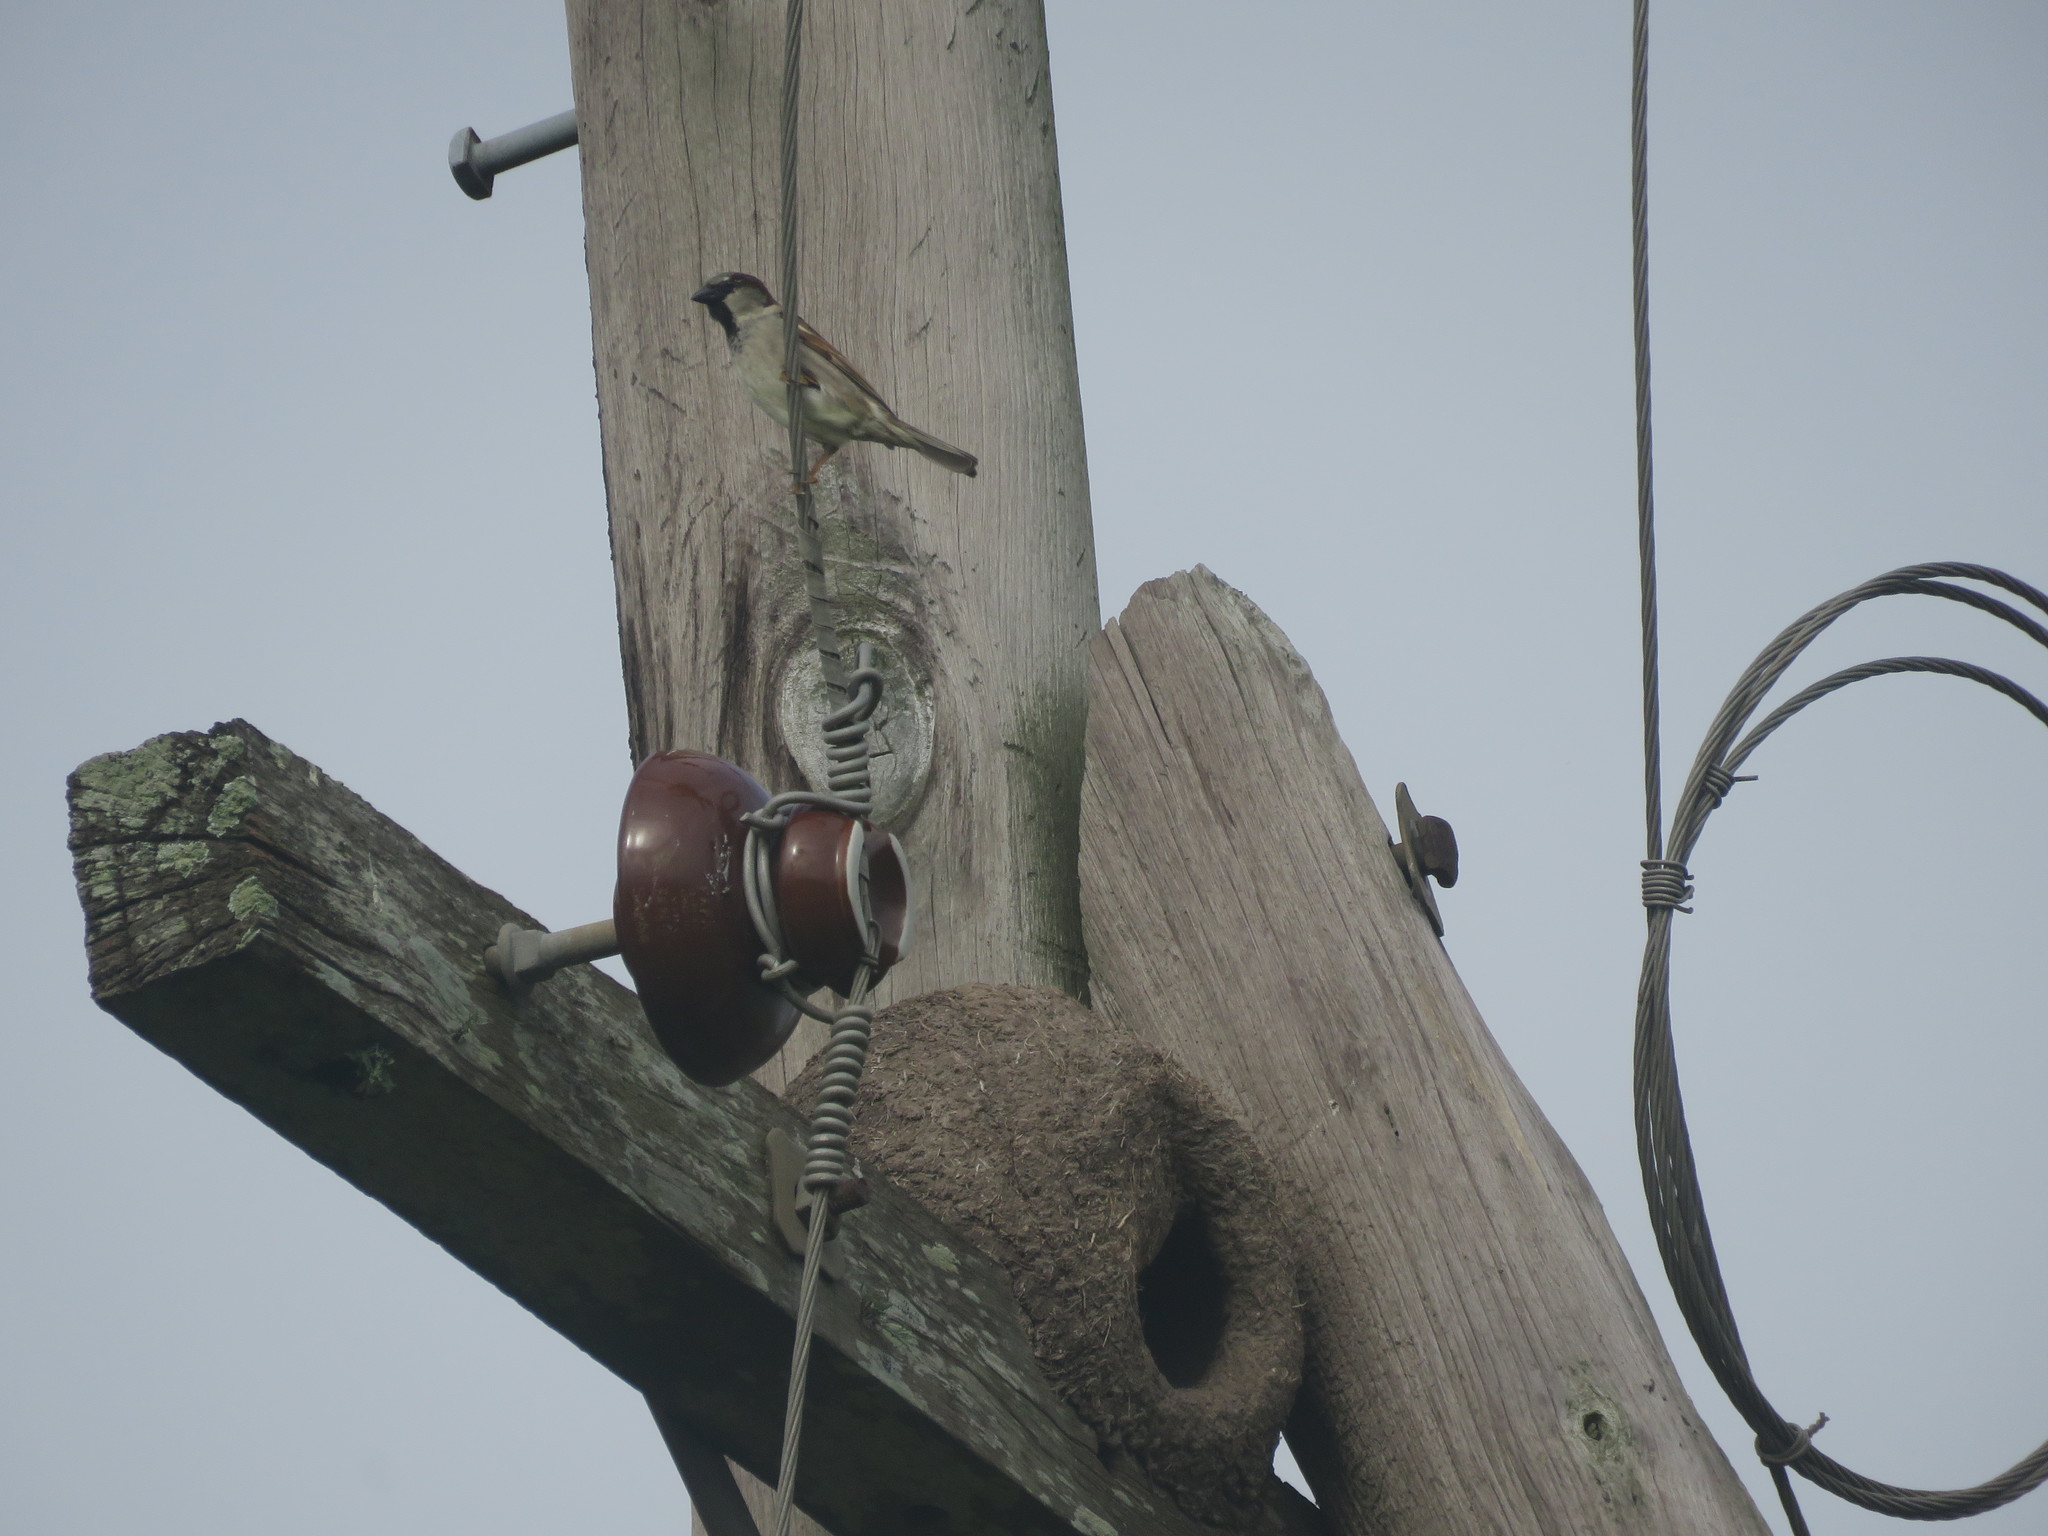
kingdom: Animalia
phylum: Chordata
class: Aves
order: Passeriformes
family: Passeridae
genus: Passer
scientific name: Passer domesticus
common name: House sparrow
